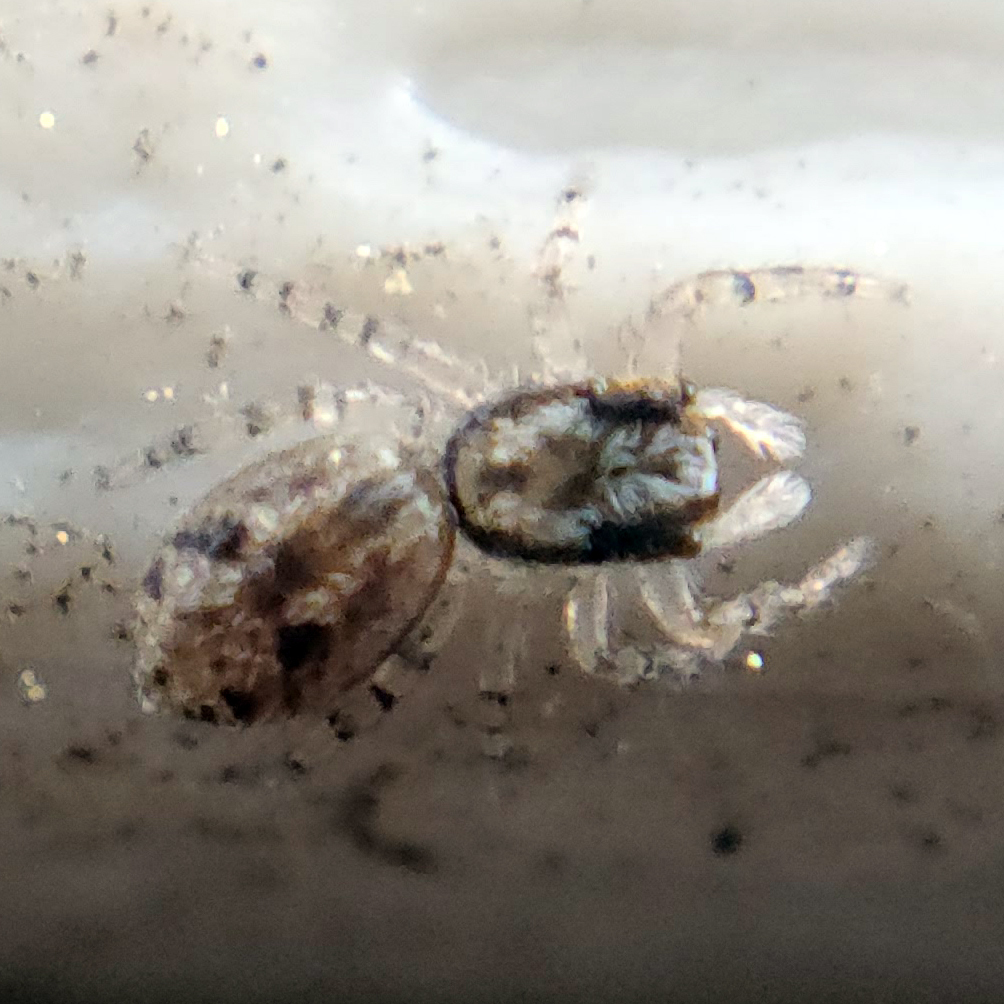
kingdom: Animalia
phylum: Arthropoda
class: Arachnida
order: Araneae
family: Salticidae
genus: Platycryptus
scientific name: Platycryptus undatus
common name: Tan jumping spider
